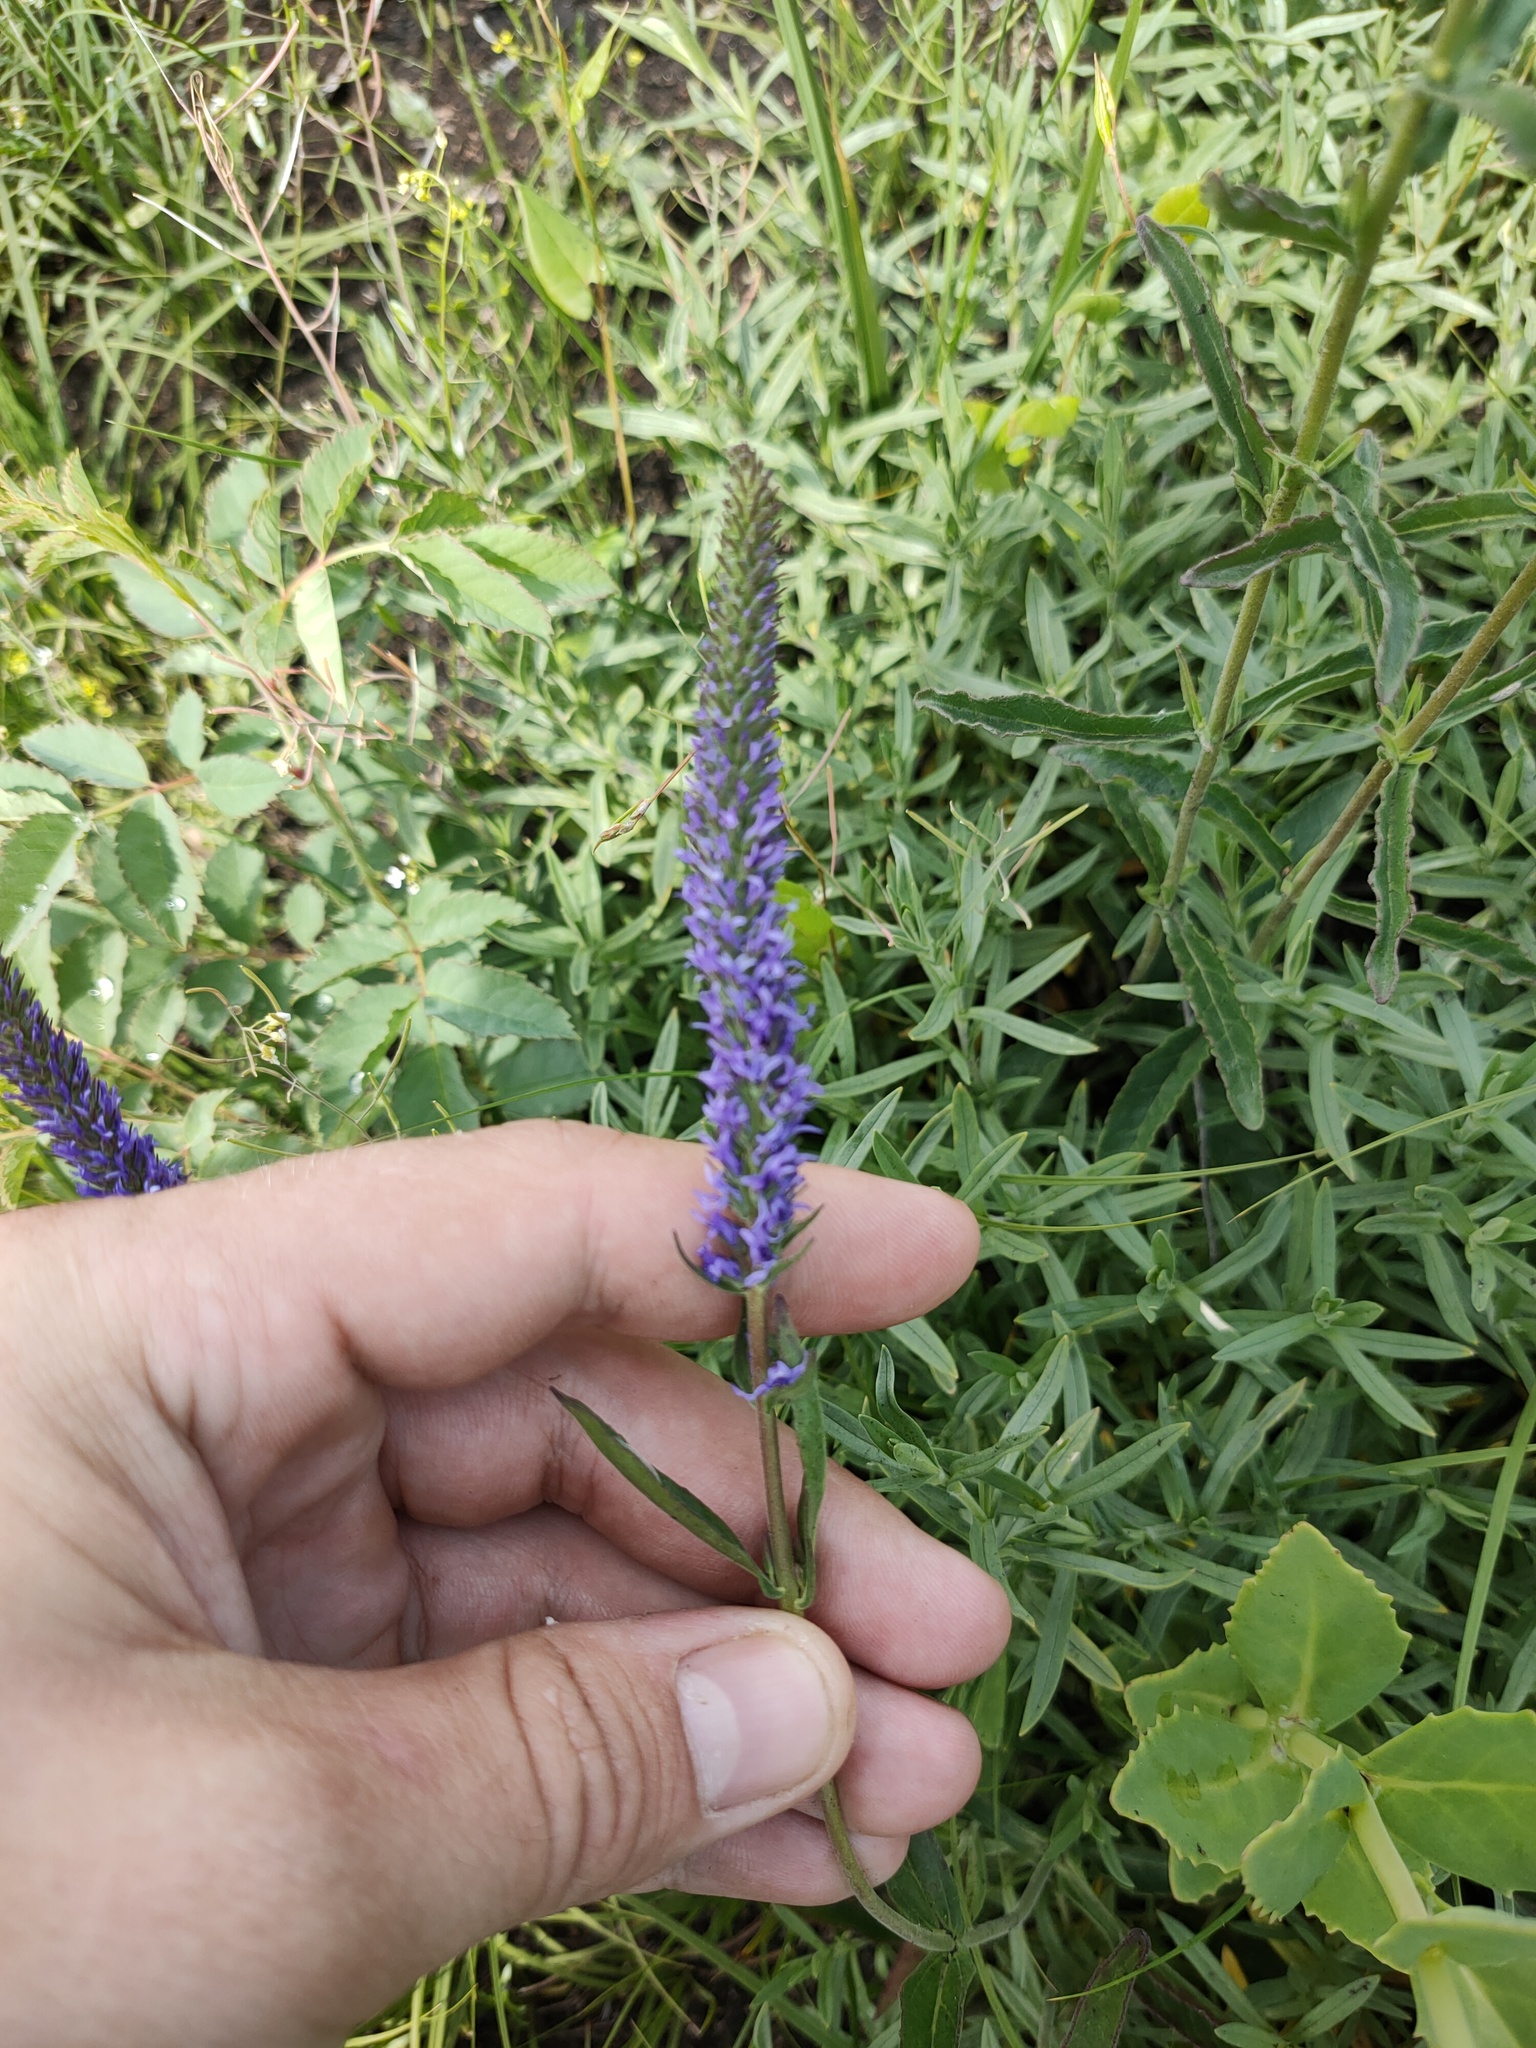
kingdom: Plantae
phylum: Tracheophyta
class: Magnoliopsida
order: Lamiales
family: Plantaginaceae
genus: Veronica
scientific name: Veronica spicata
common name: Spiked speedwell
